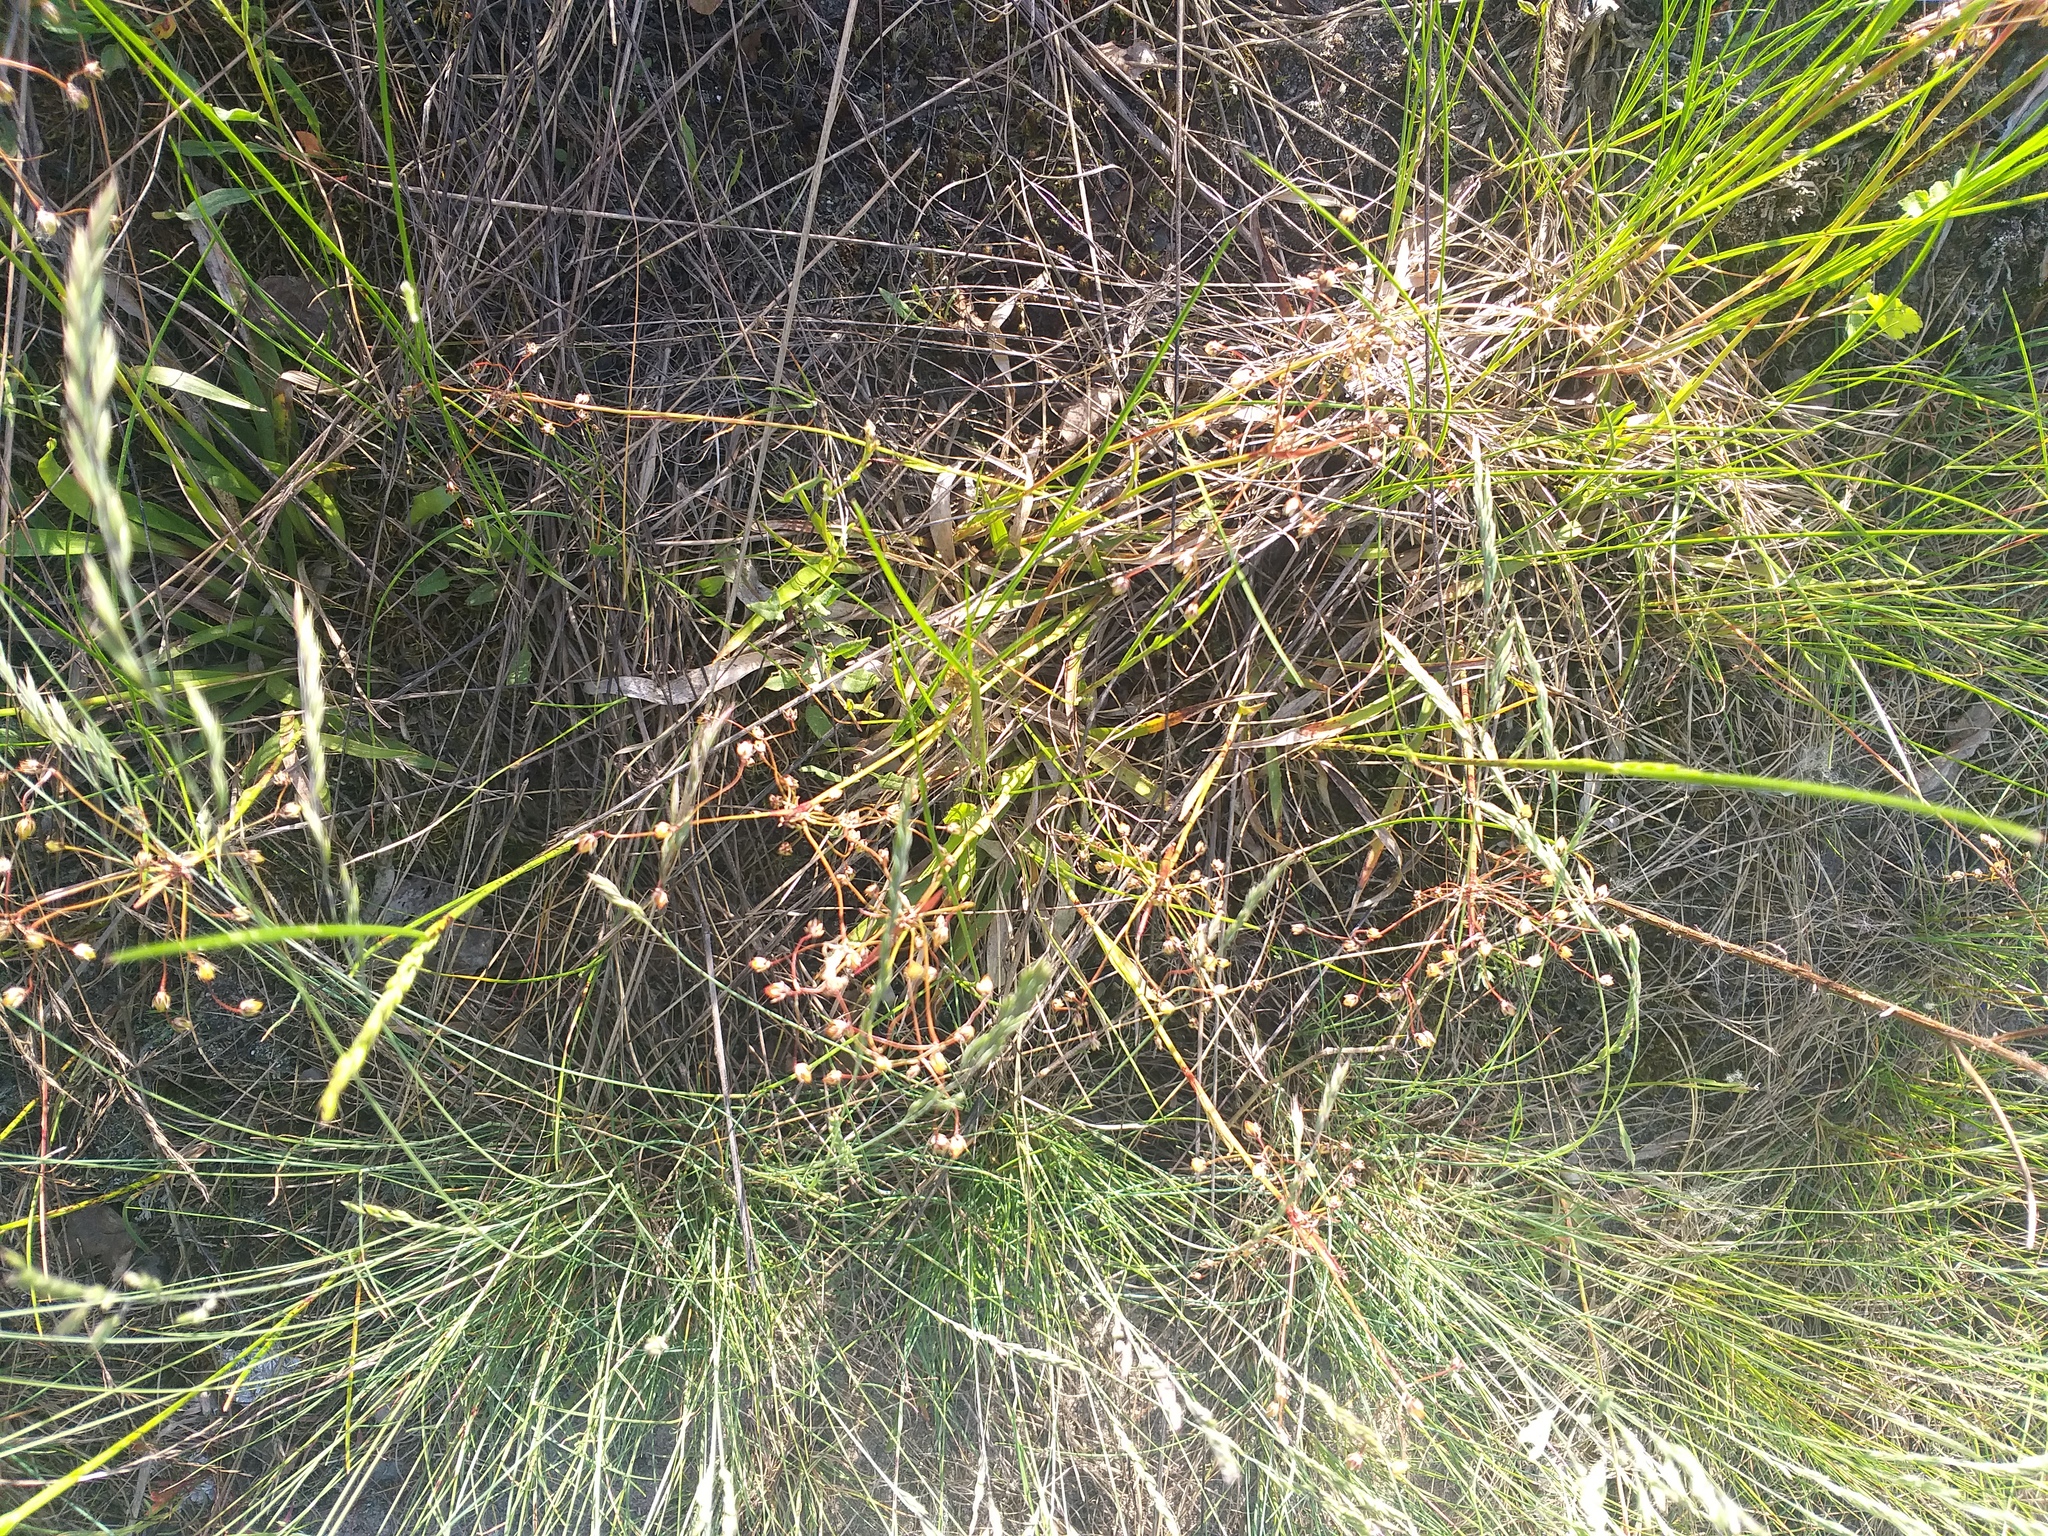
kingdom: Plantae
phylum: Tracheophyta
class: Liliopsida
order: Poales
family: Juncaceae
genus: Luzula
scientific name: Luzula pilosa
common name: Hairy wood-rush
